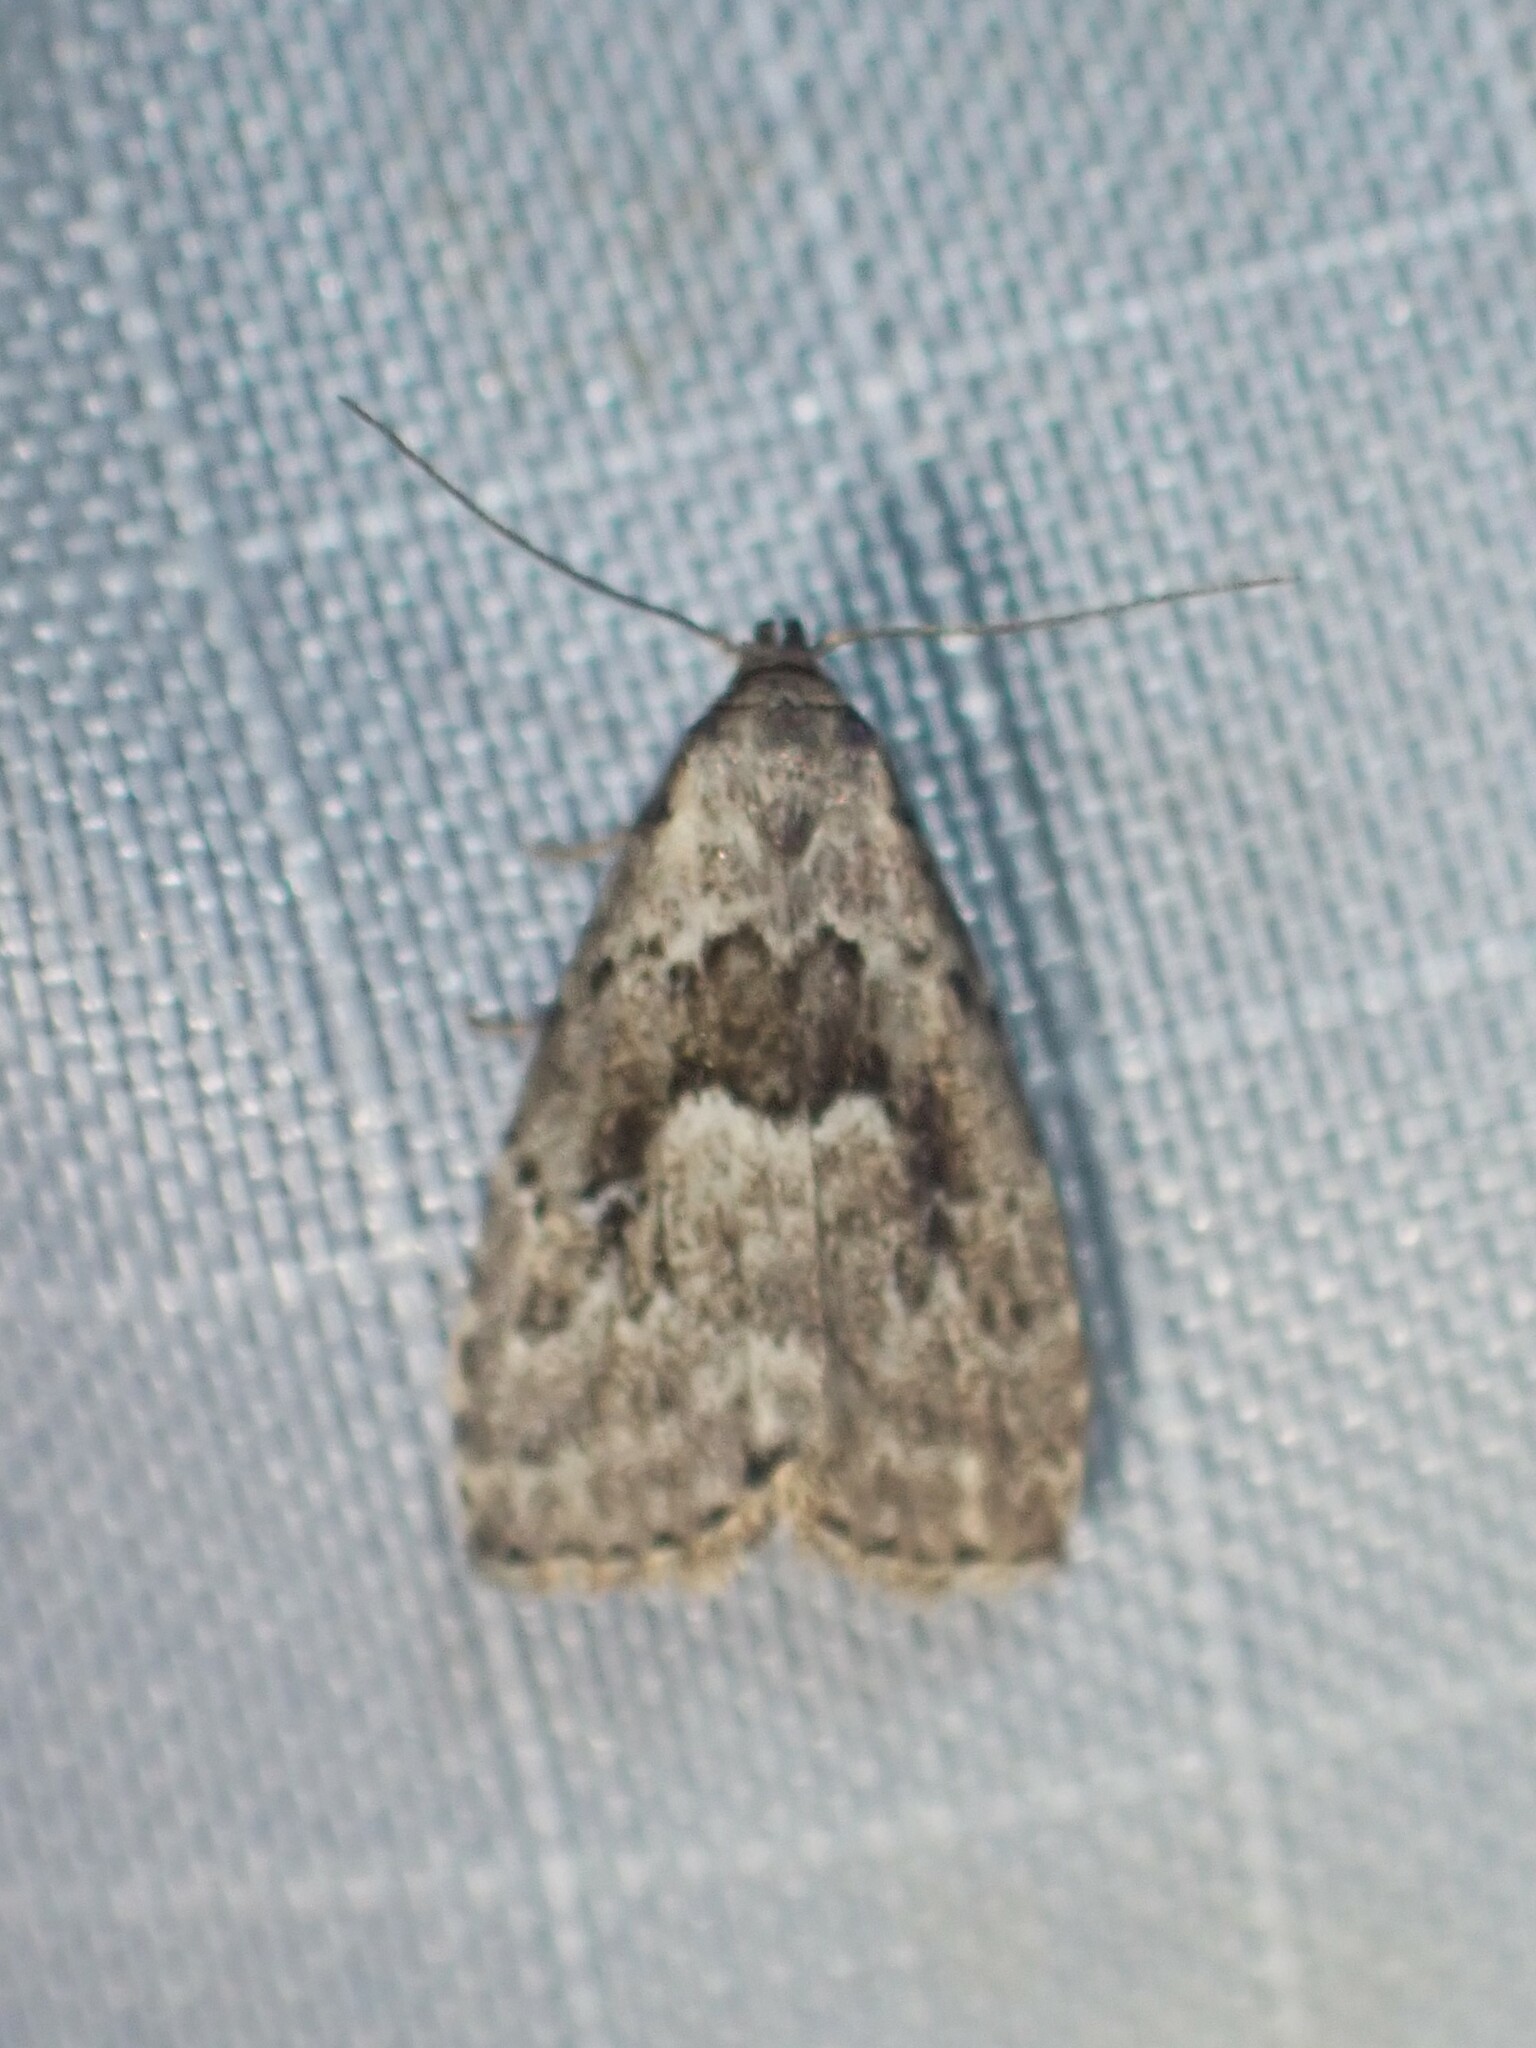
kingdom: Animalia
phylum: Arthropoda
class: Insecta
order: Lepidoptera
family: Erebidae
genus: Hypenodes
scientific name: Hypenodes franclemonti
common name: Franclemont's hypenodes moth
